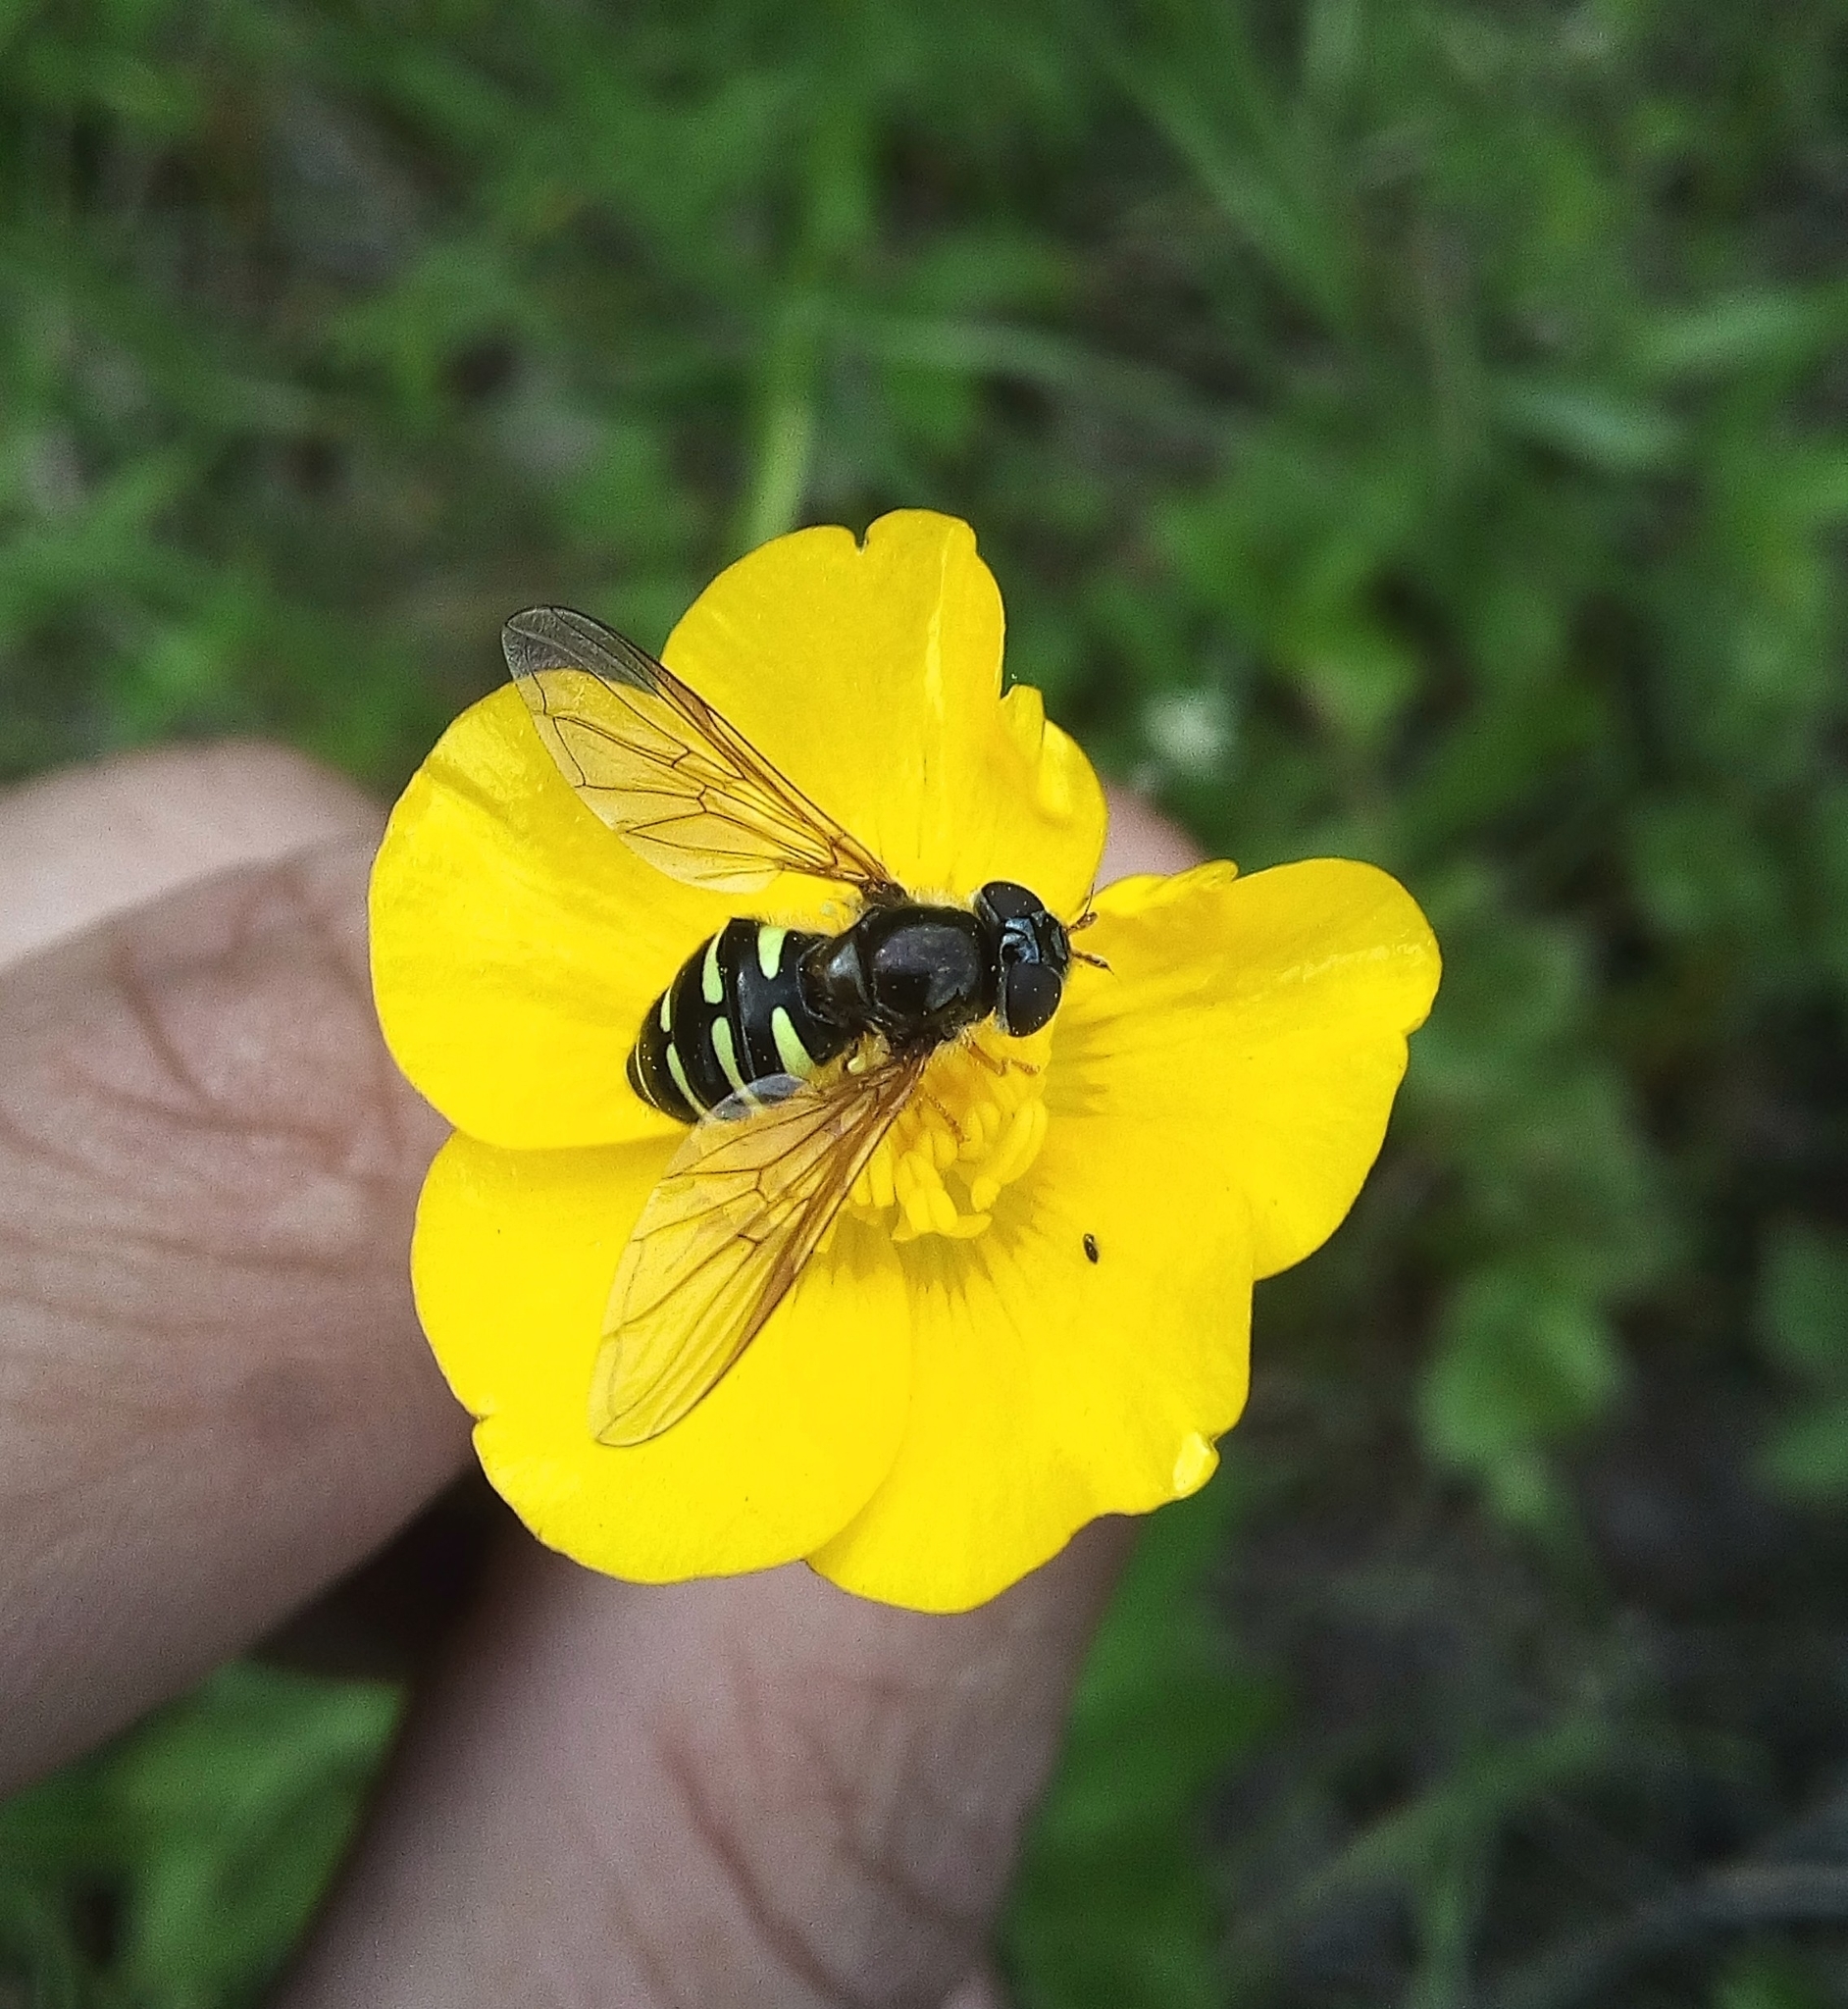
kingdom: Animalia
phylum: Arthropoda
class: Insecta
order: Diptera
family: Syrphidae
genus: Dasysyrphus
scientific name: Dasysyrphus
